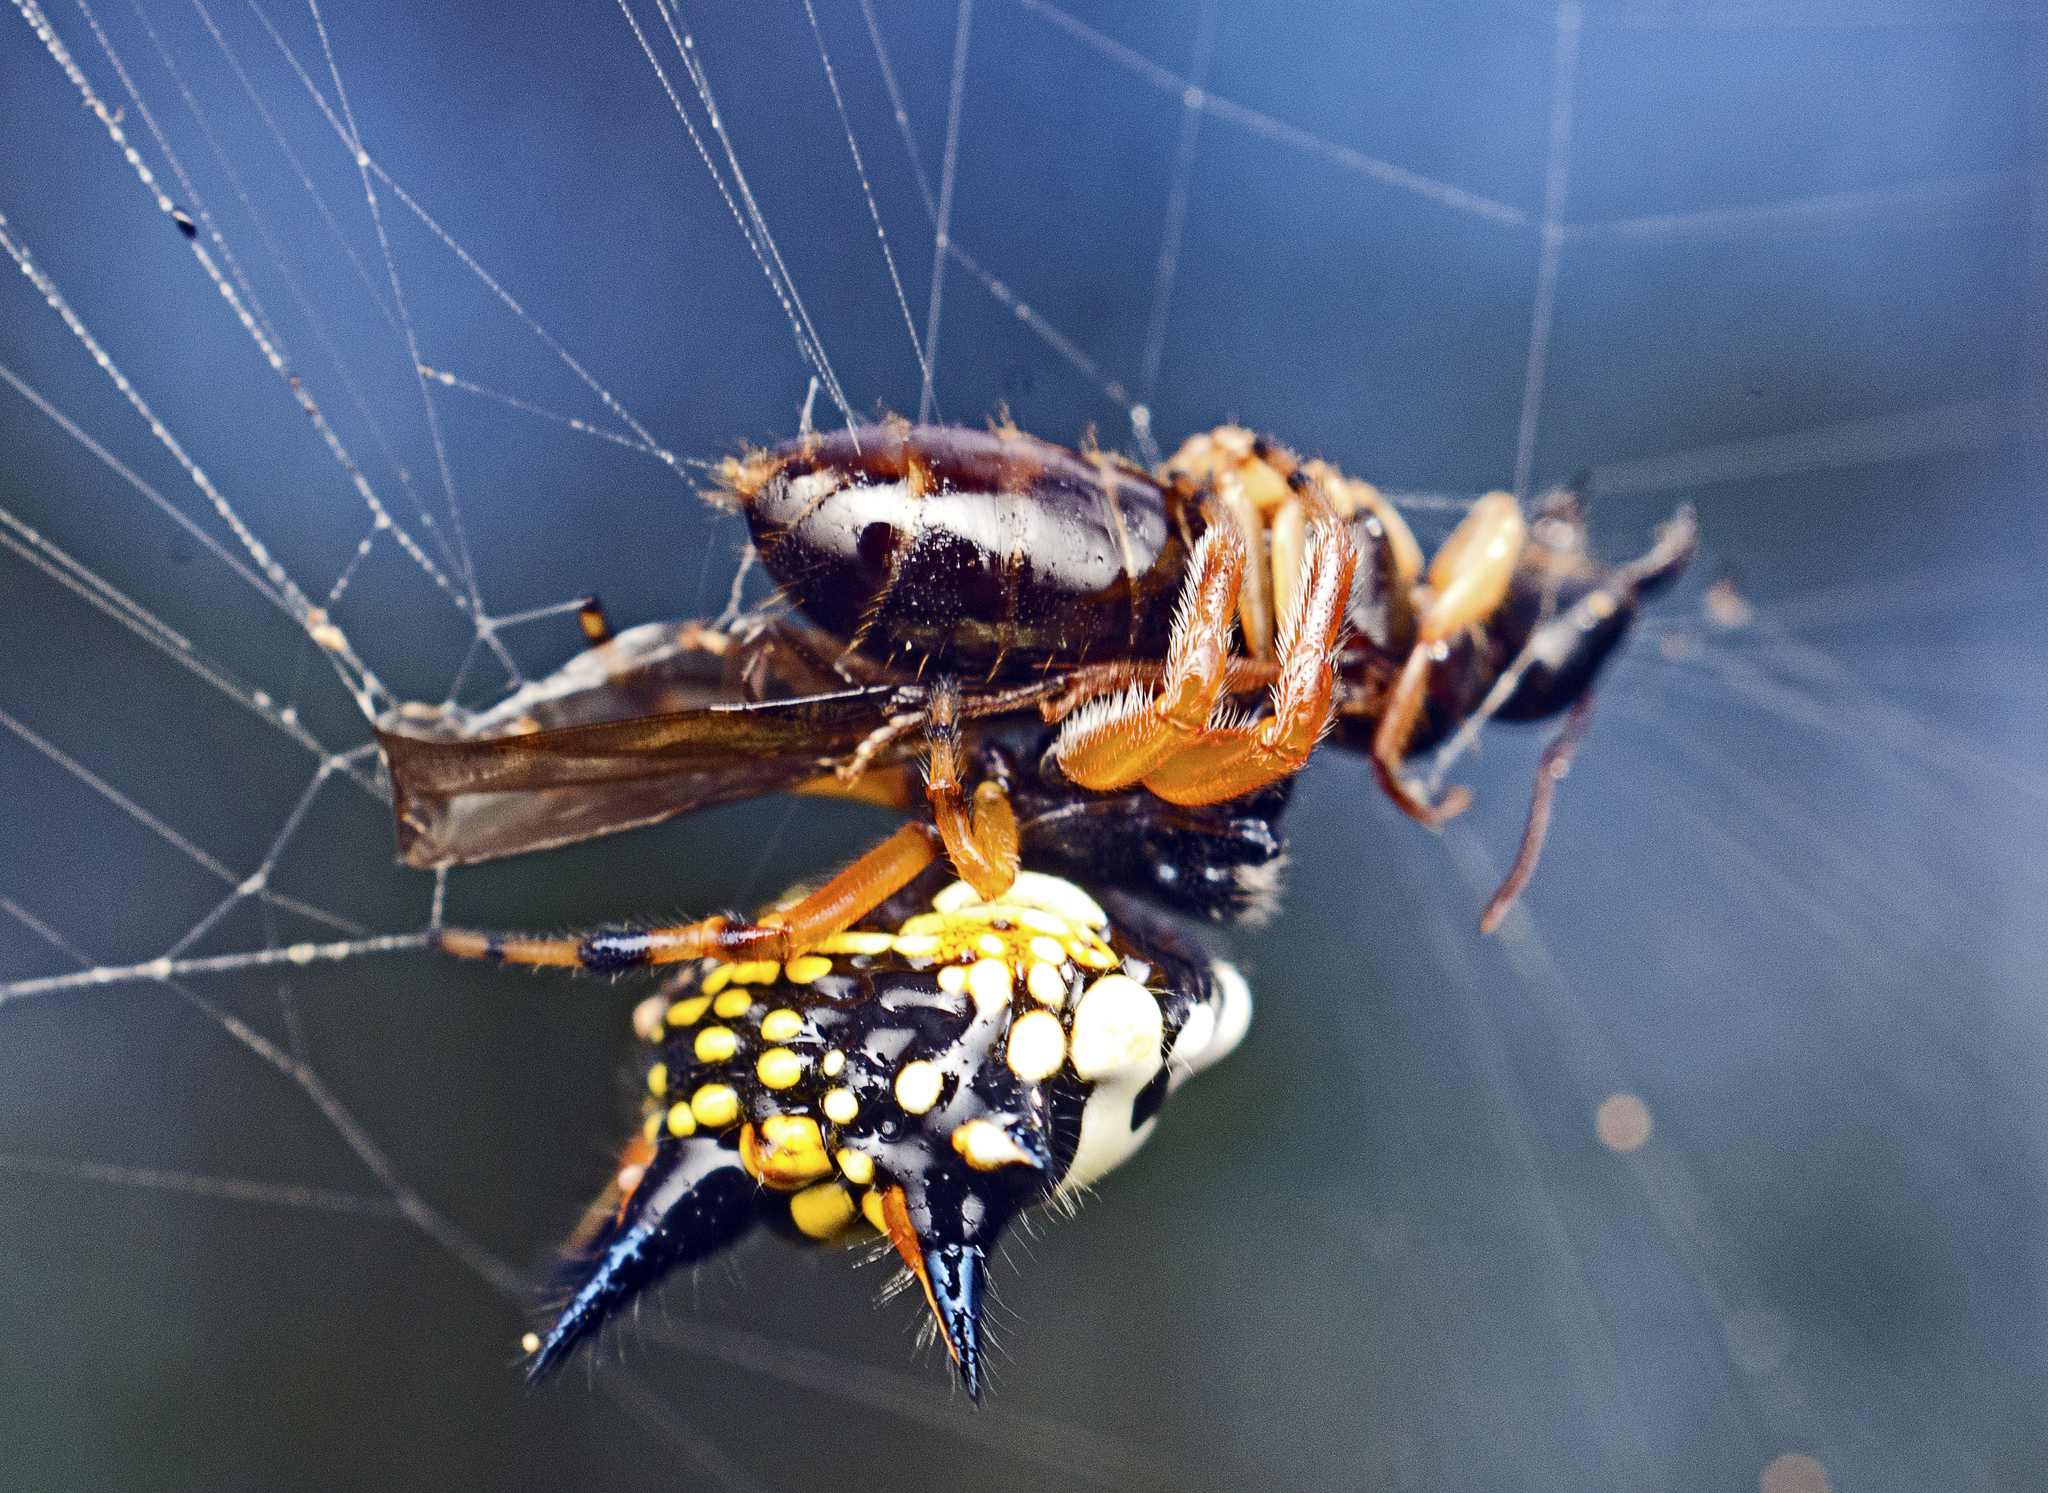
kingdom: Animalia
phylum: Arthropoda
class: Arachnida
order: Araneae
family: Araneidae
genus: Austracantha
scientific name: Austracantha minax
